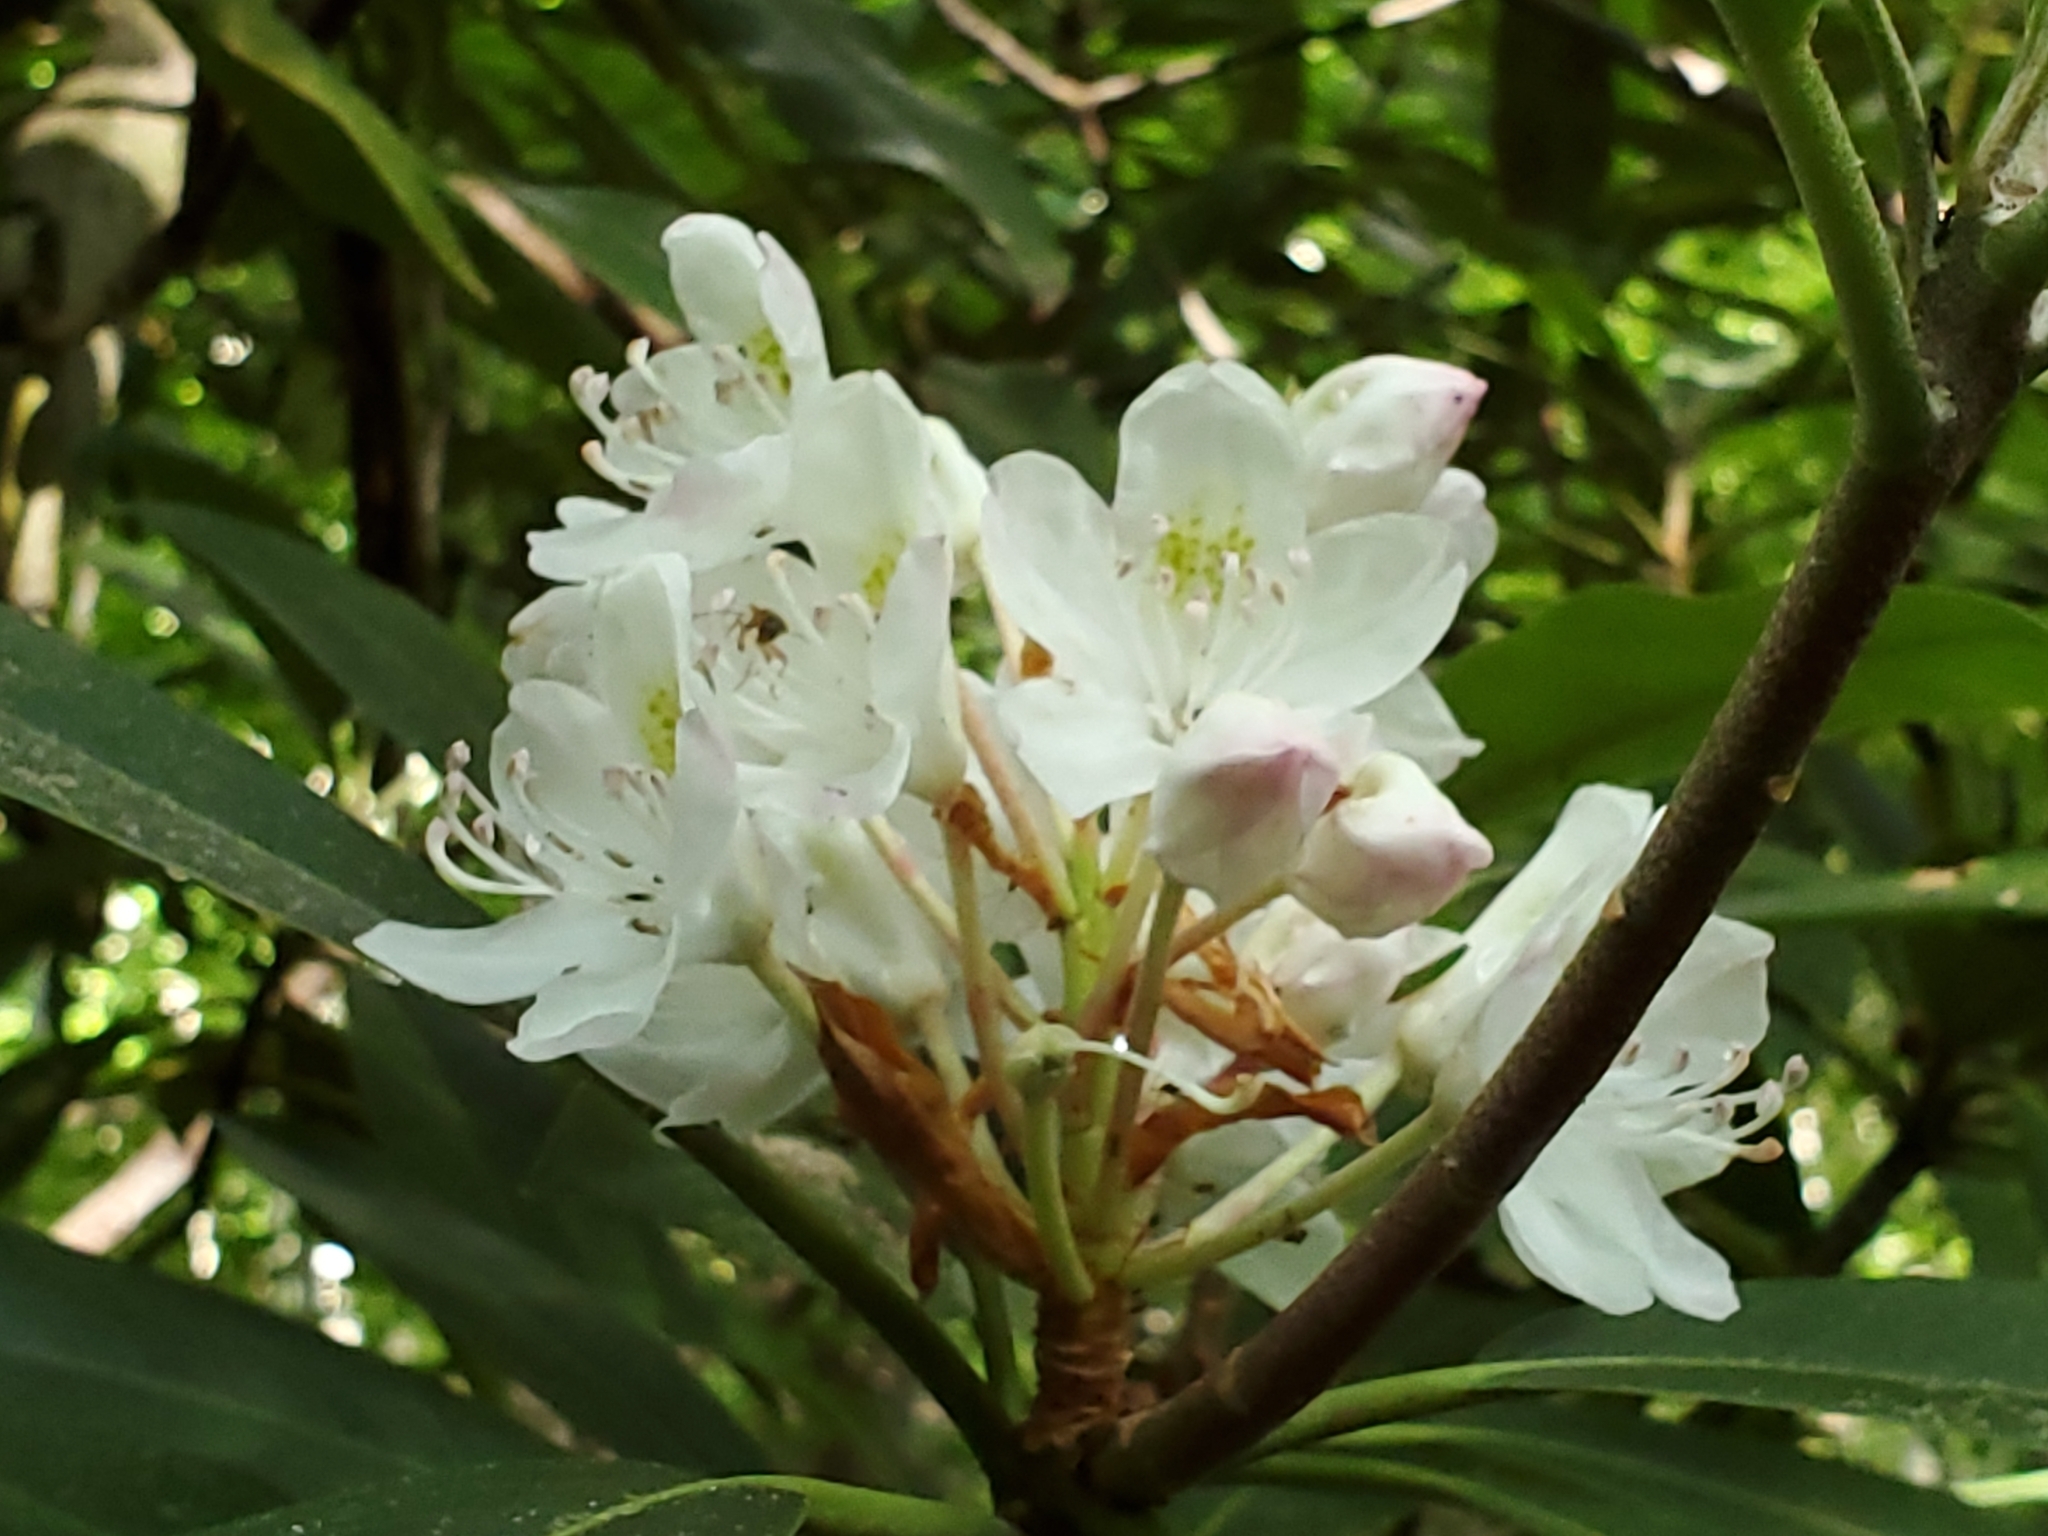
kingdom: Plantae
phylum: Tracheophyta
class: Magnoliopsida
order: Ericales
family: Ericaceae
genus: Rhododendron
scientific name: Rhododendron maximum
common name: Great rhododendron
